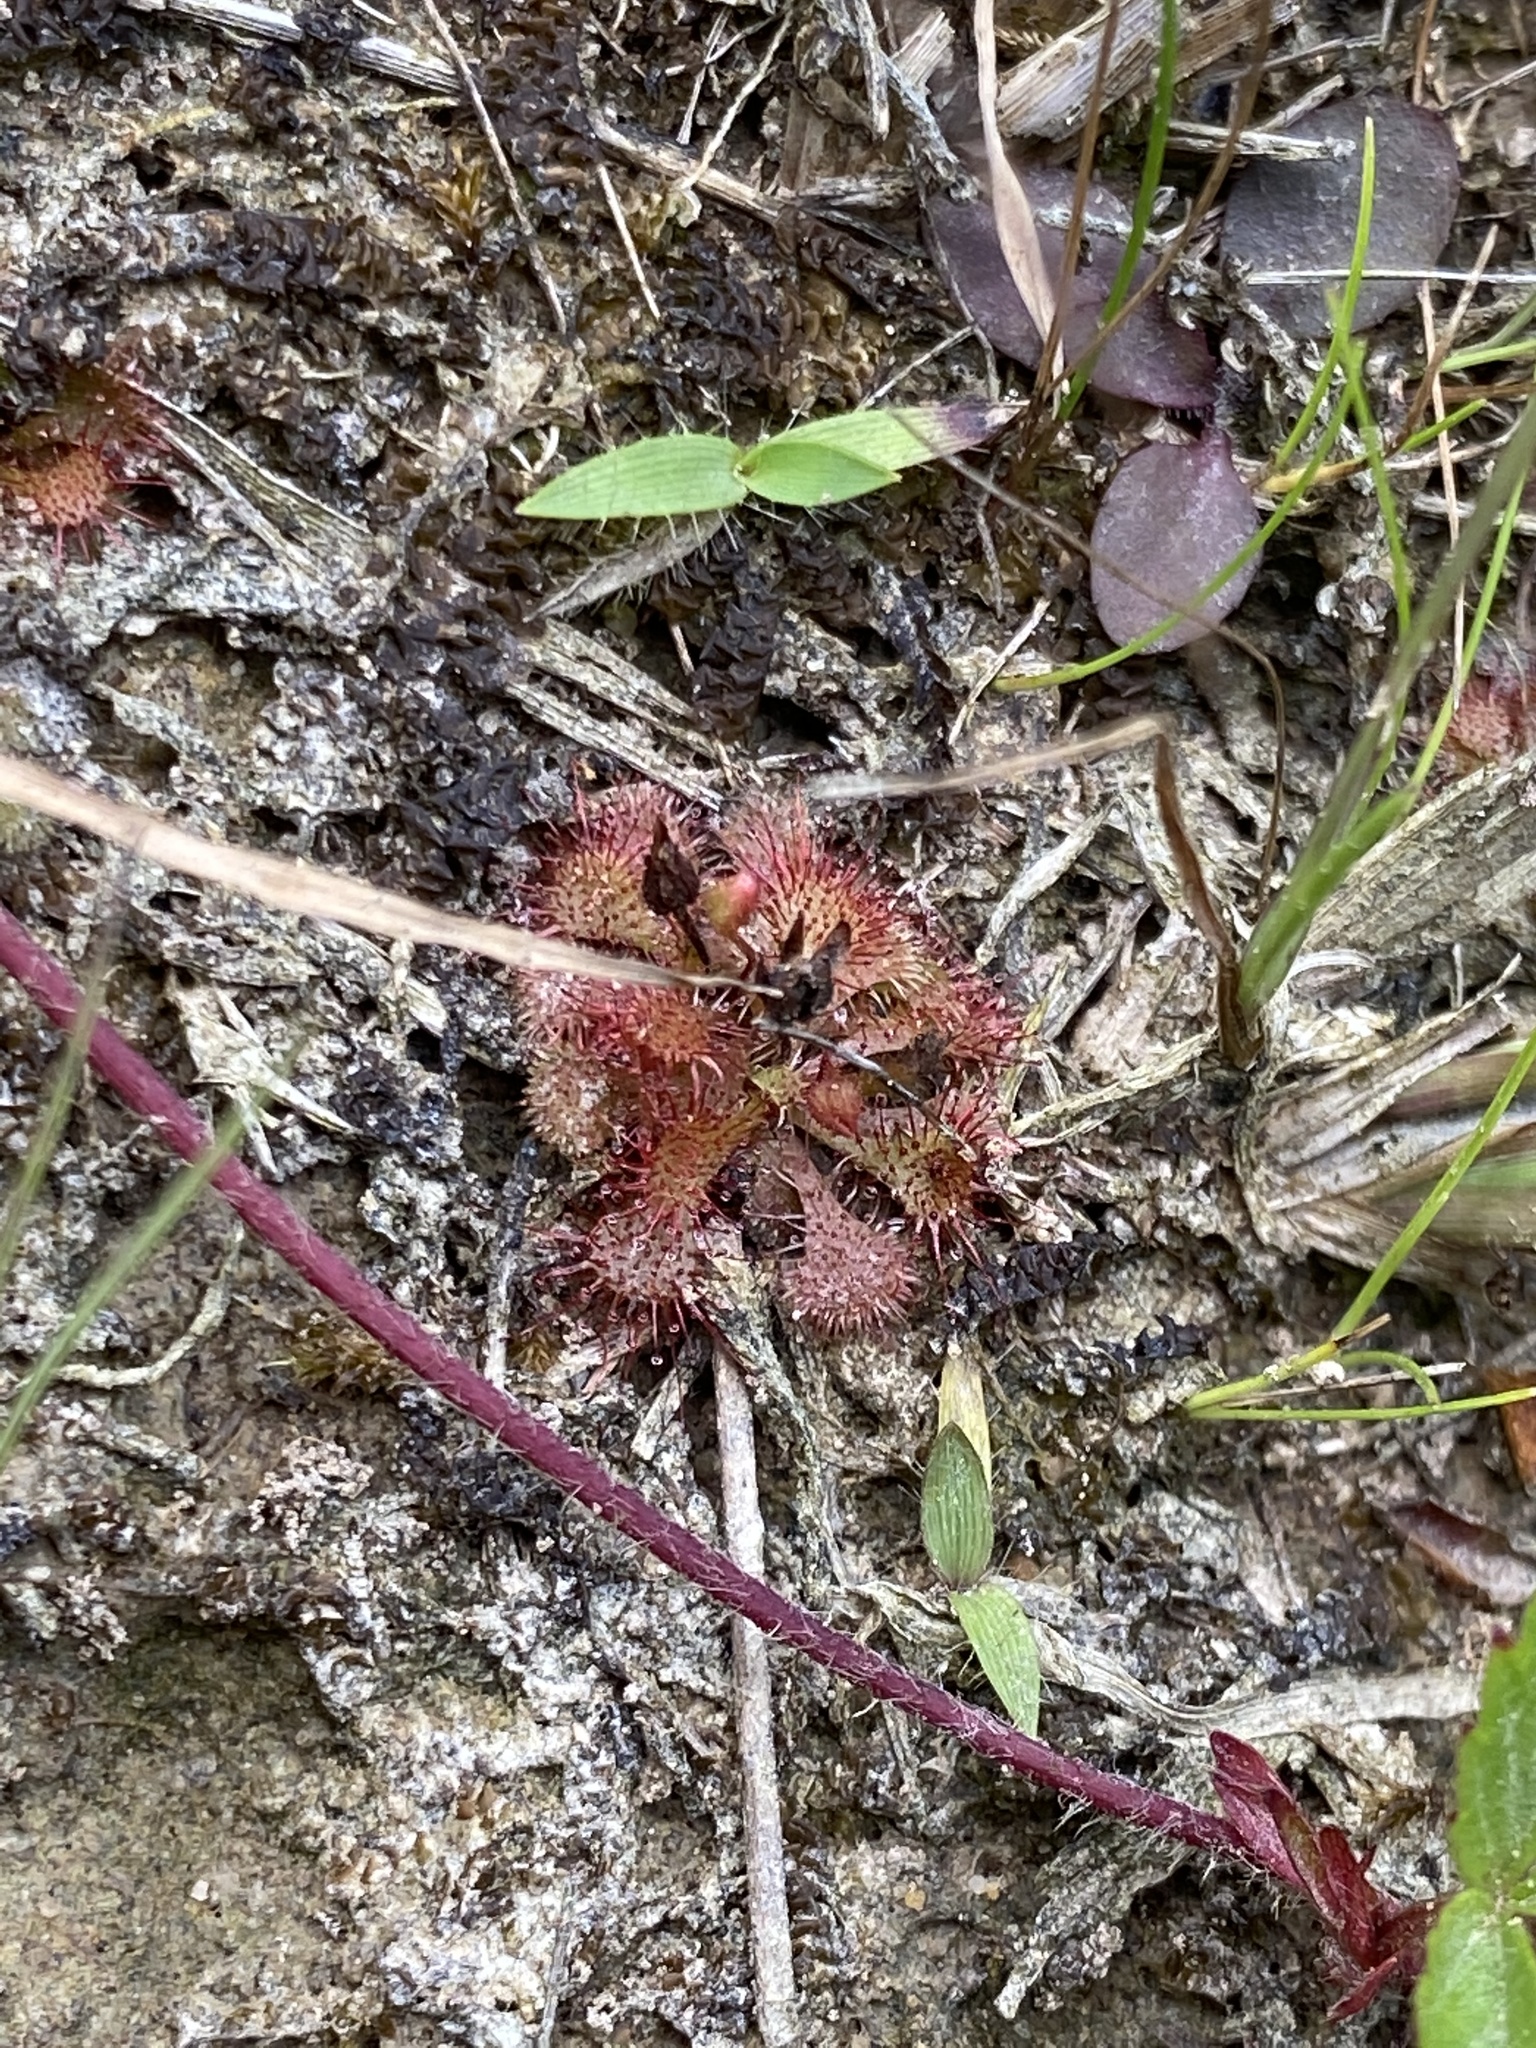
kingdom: Plantae
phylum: Tracheophyta
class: Magnoliopsida
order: Caryophyllales
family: Droseraceae
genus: Drosera
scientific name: Drosera brevifolia
